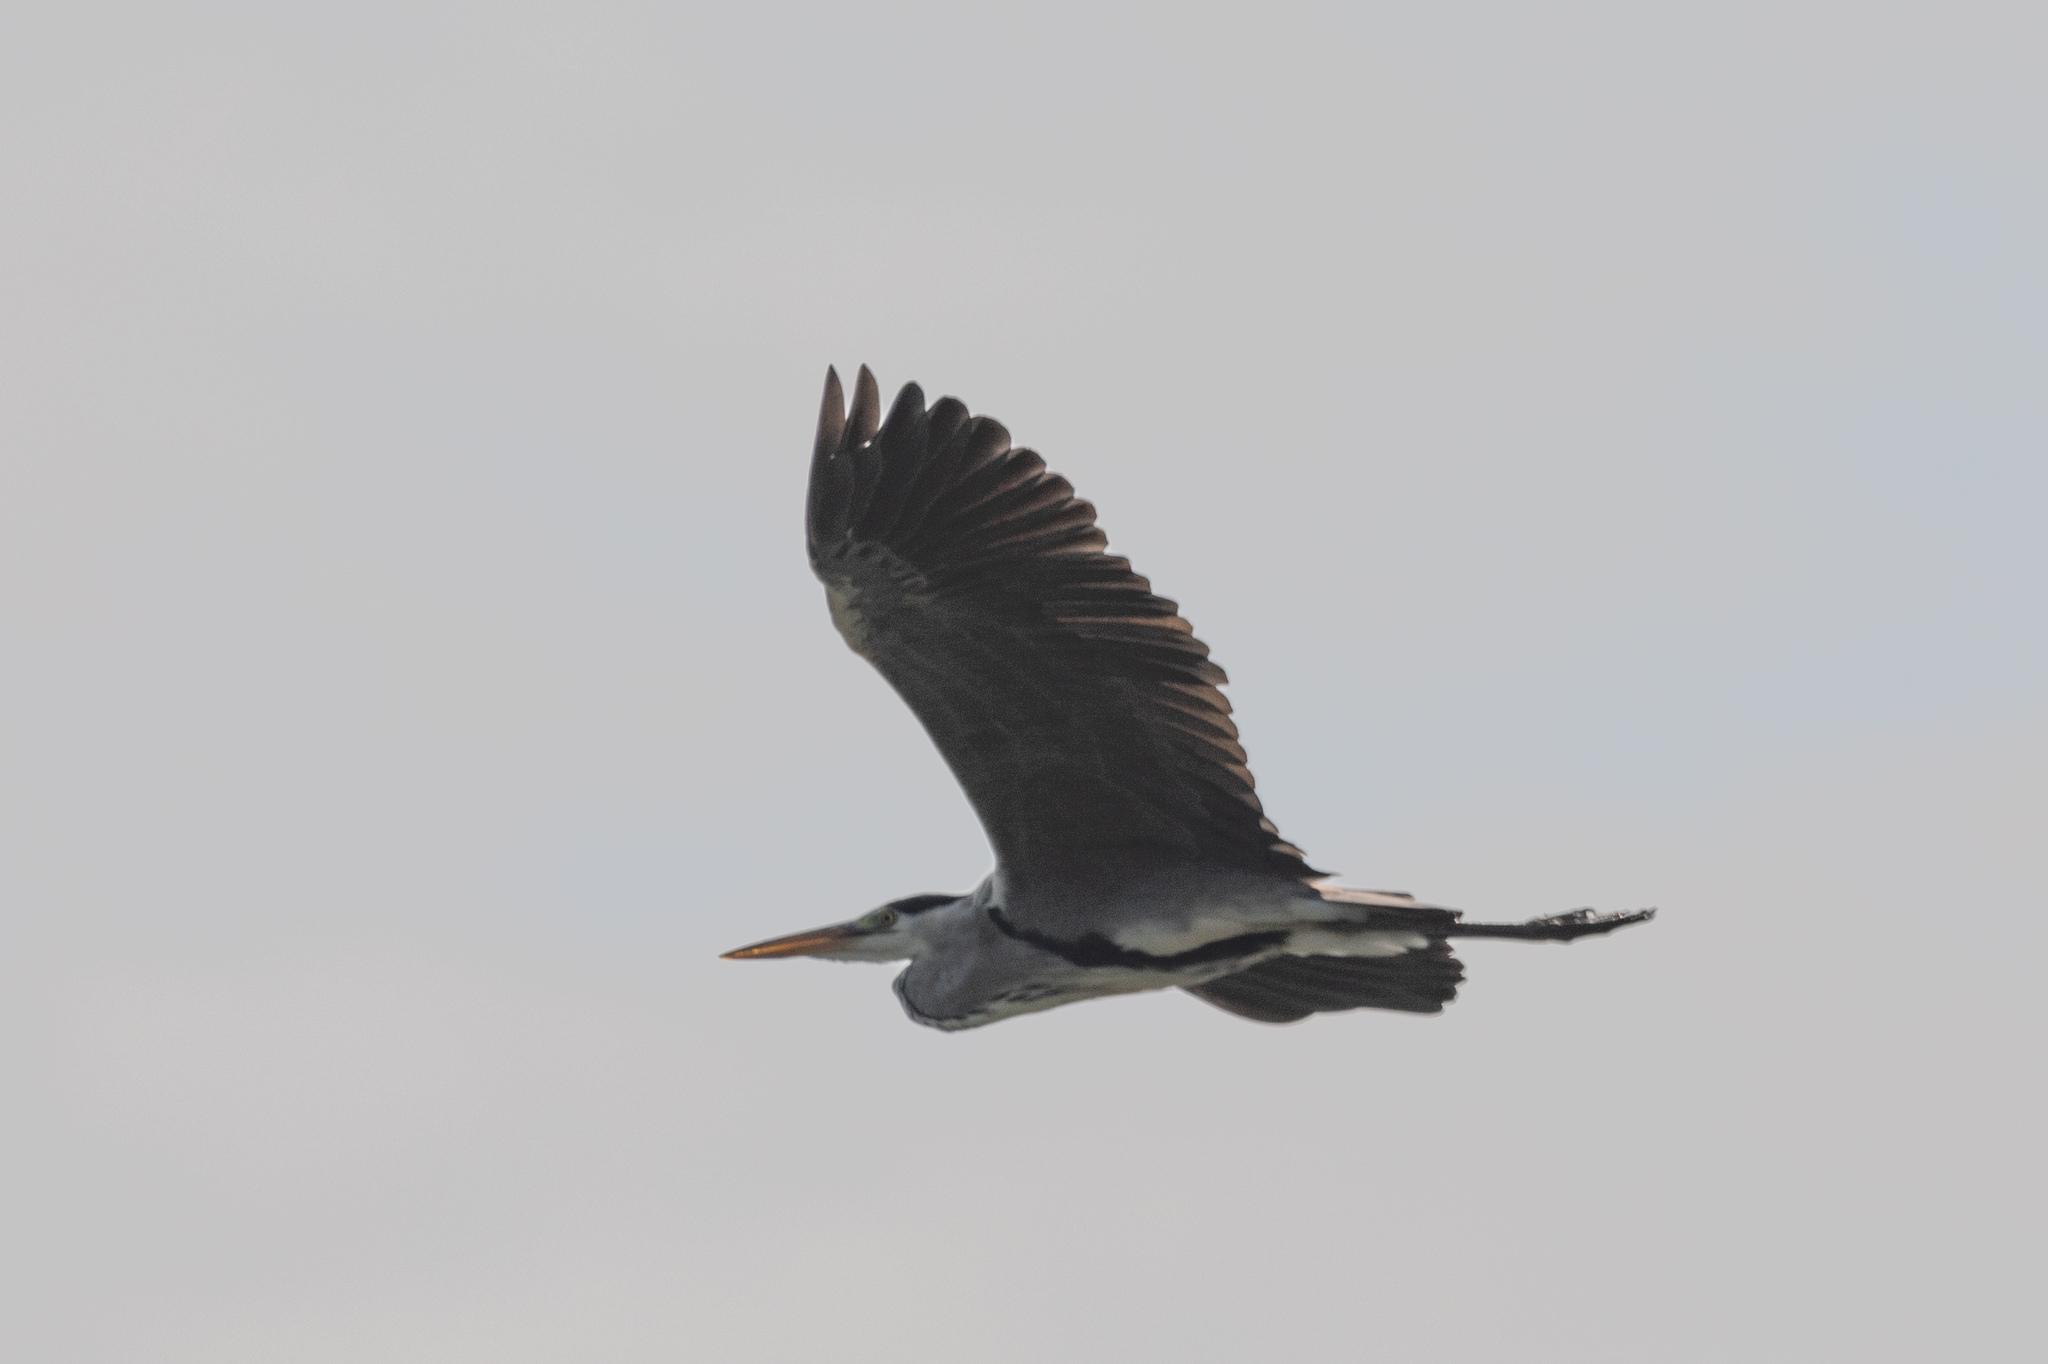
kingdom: Animalia
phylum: Chordata
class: Aves
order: Pelecaniformes
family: Ardeidae
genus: Ardea
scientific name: Ardea cinerea
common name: Grey heron
